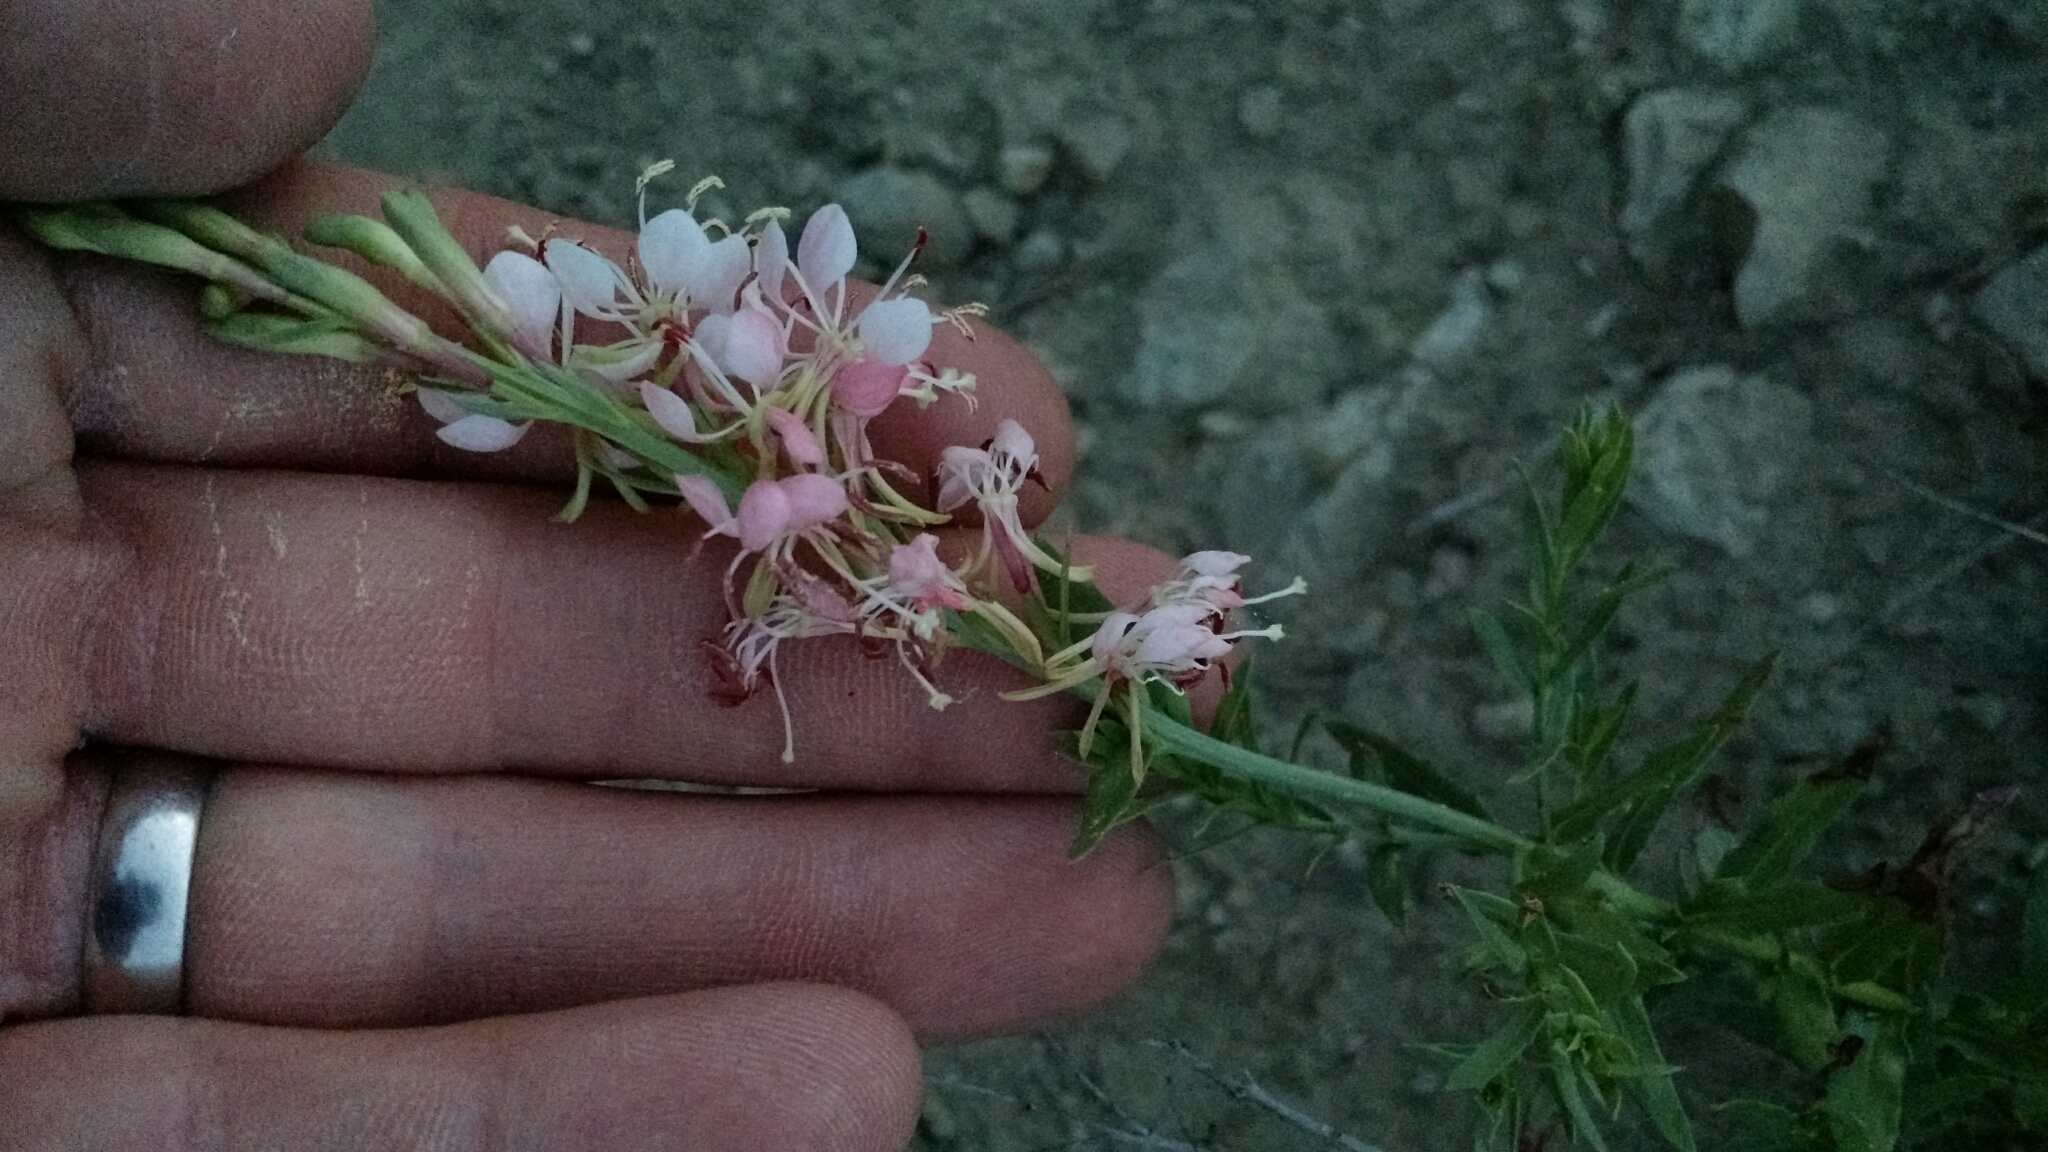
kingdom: Plantae
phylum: Tracheophyta
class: Magnoliopsida
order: Myrtales
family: Onagraceae
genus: Oenothera
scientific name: Oenothera suffrutescens
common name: Scarlet beeblossom
